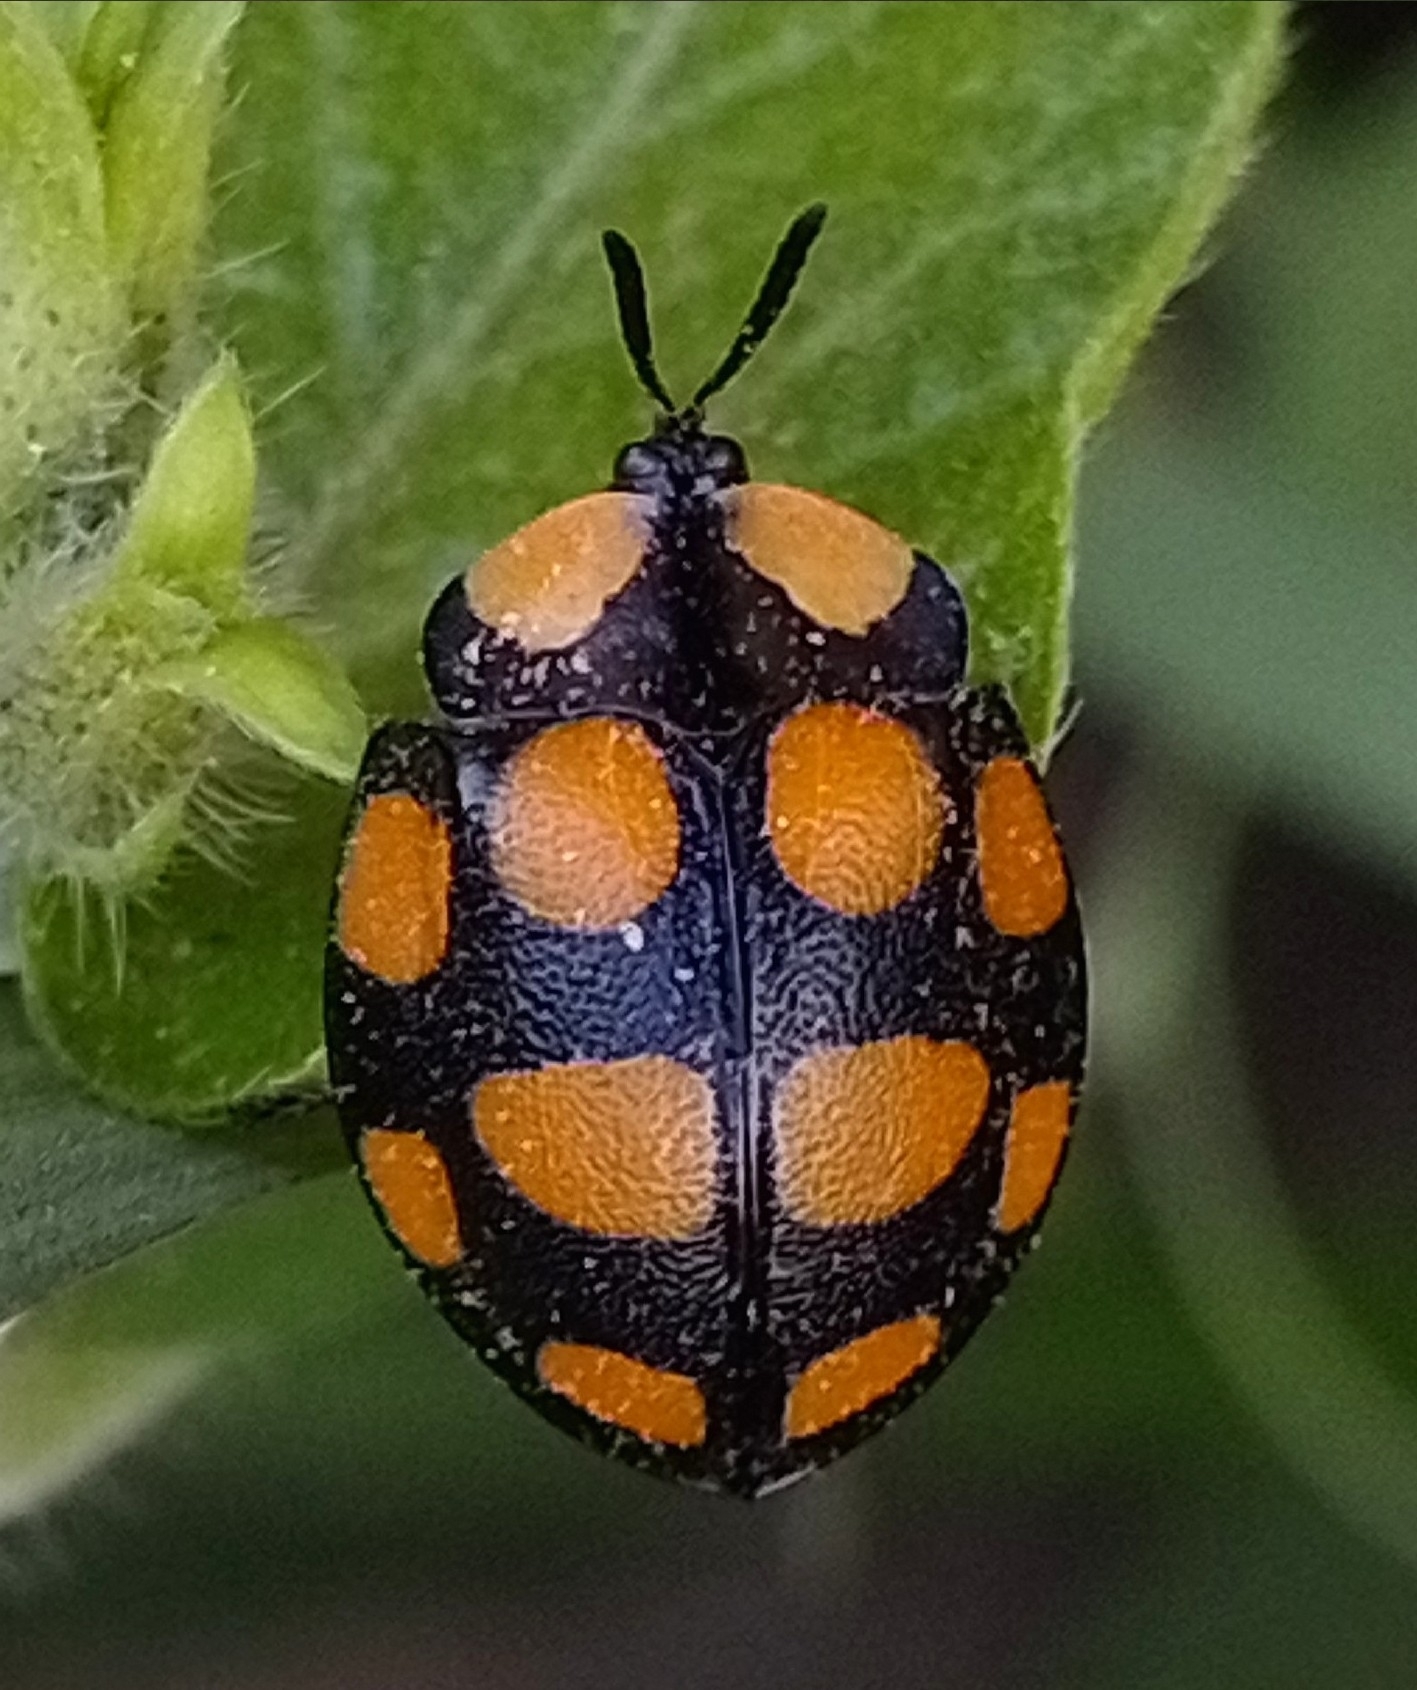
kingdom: Animalia
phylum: Arthropoda
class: Insecta
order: Coleoptera
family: Chrysomelidae
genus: Botanochara
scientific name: Botanochara decempustulata
